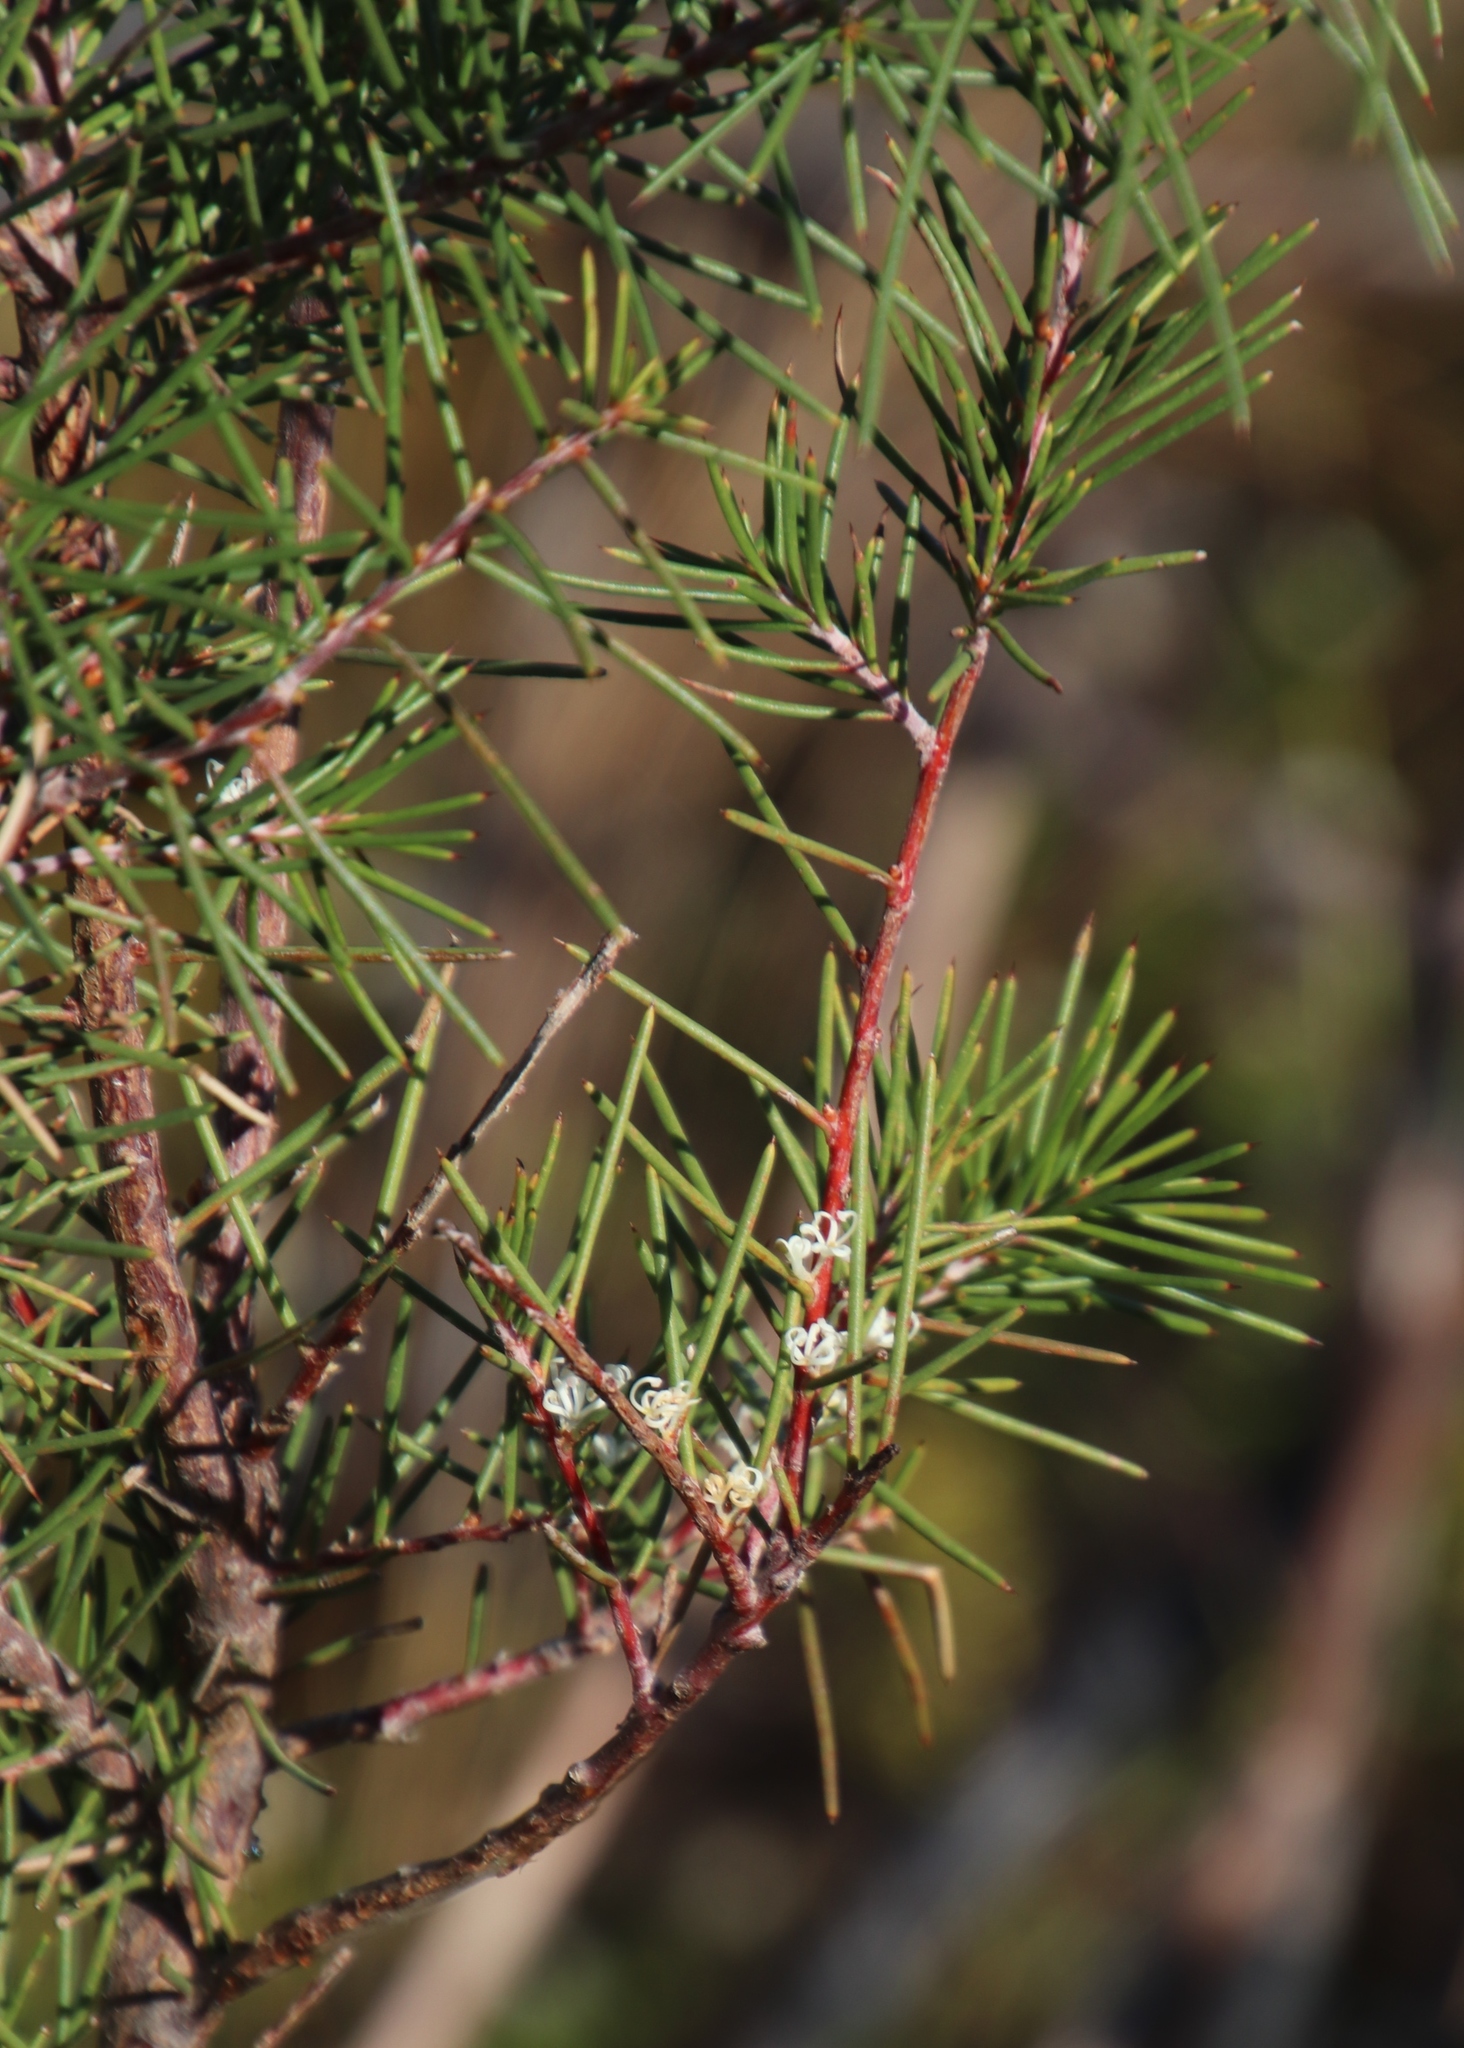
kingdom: Plantae
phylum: Tracheophyta
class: Magnoliopsida
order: Proteales
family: Proteaceae
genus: Hakea
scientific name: Hakea sericea
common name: Needle bush
